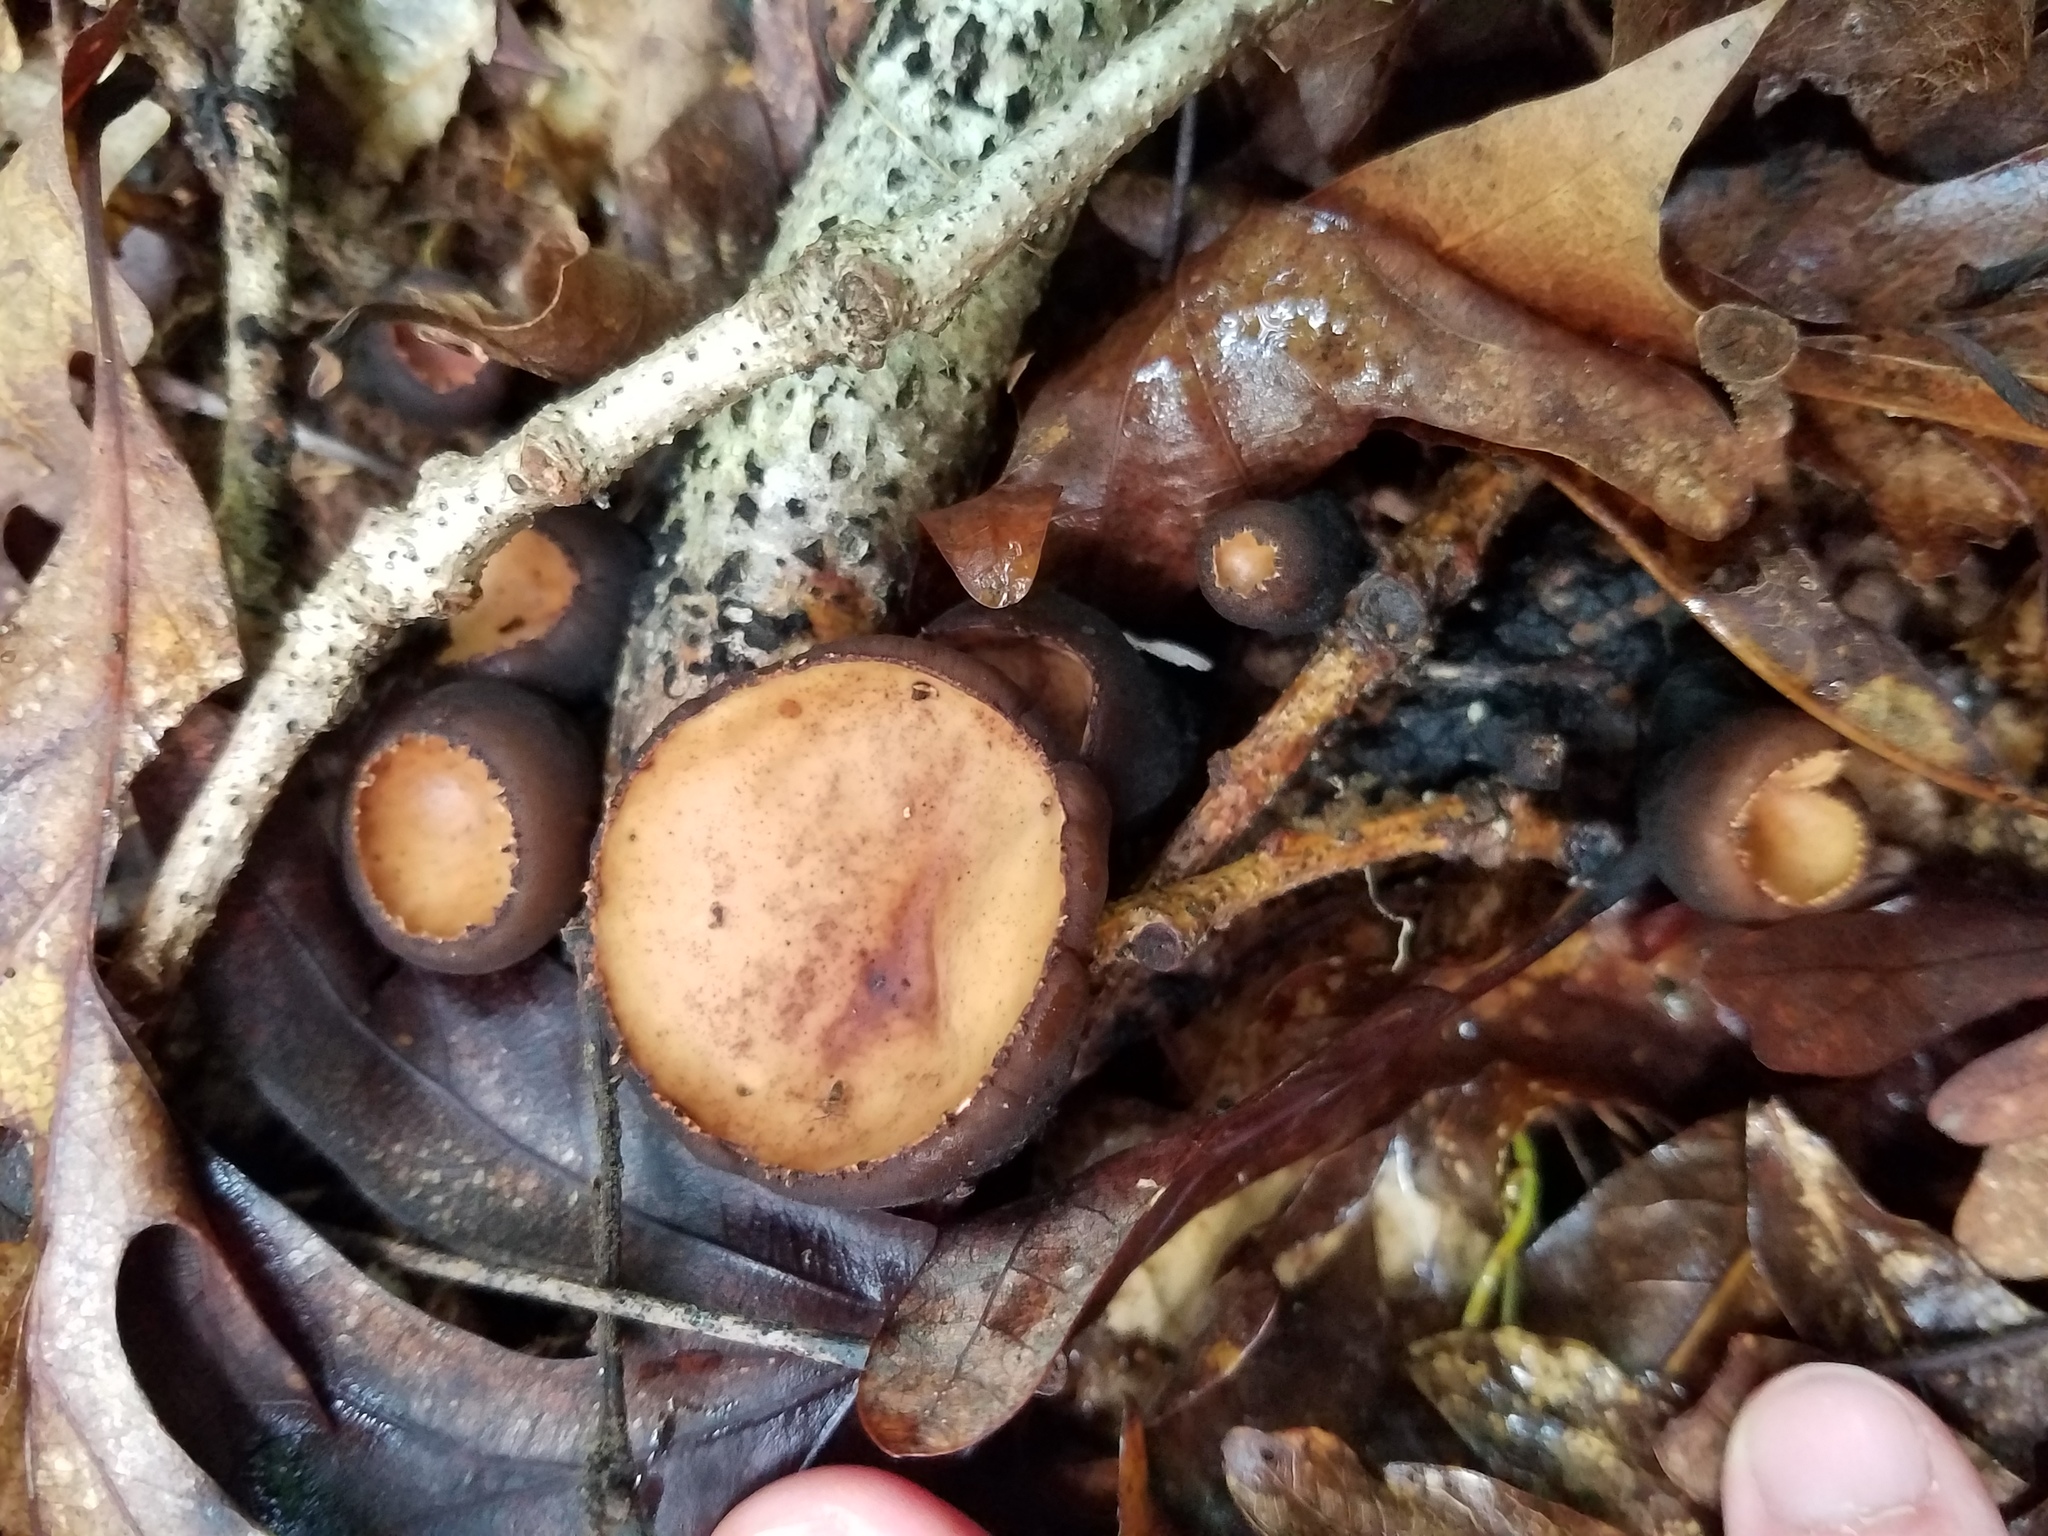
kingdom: Fungi
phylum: Ascomycota
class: Pezizomycetes
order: Pezizales
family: Sarcosomataceae
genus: Galiella
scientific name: Galiella rufa
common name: Hairy rubber cup
